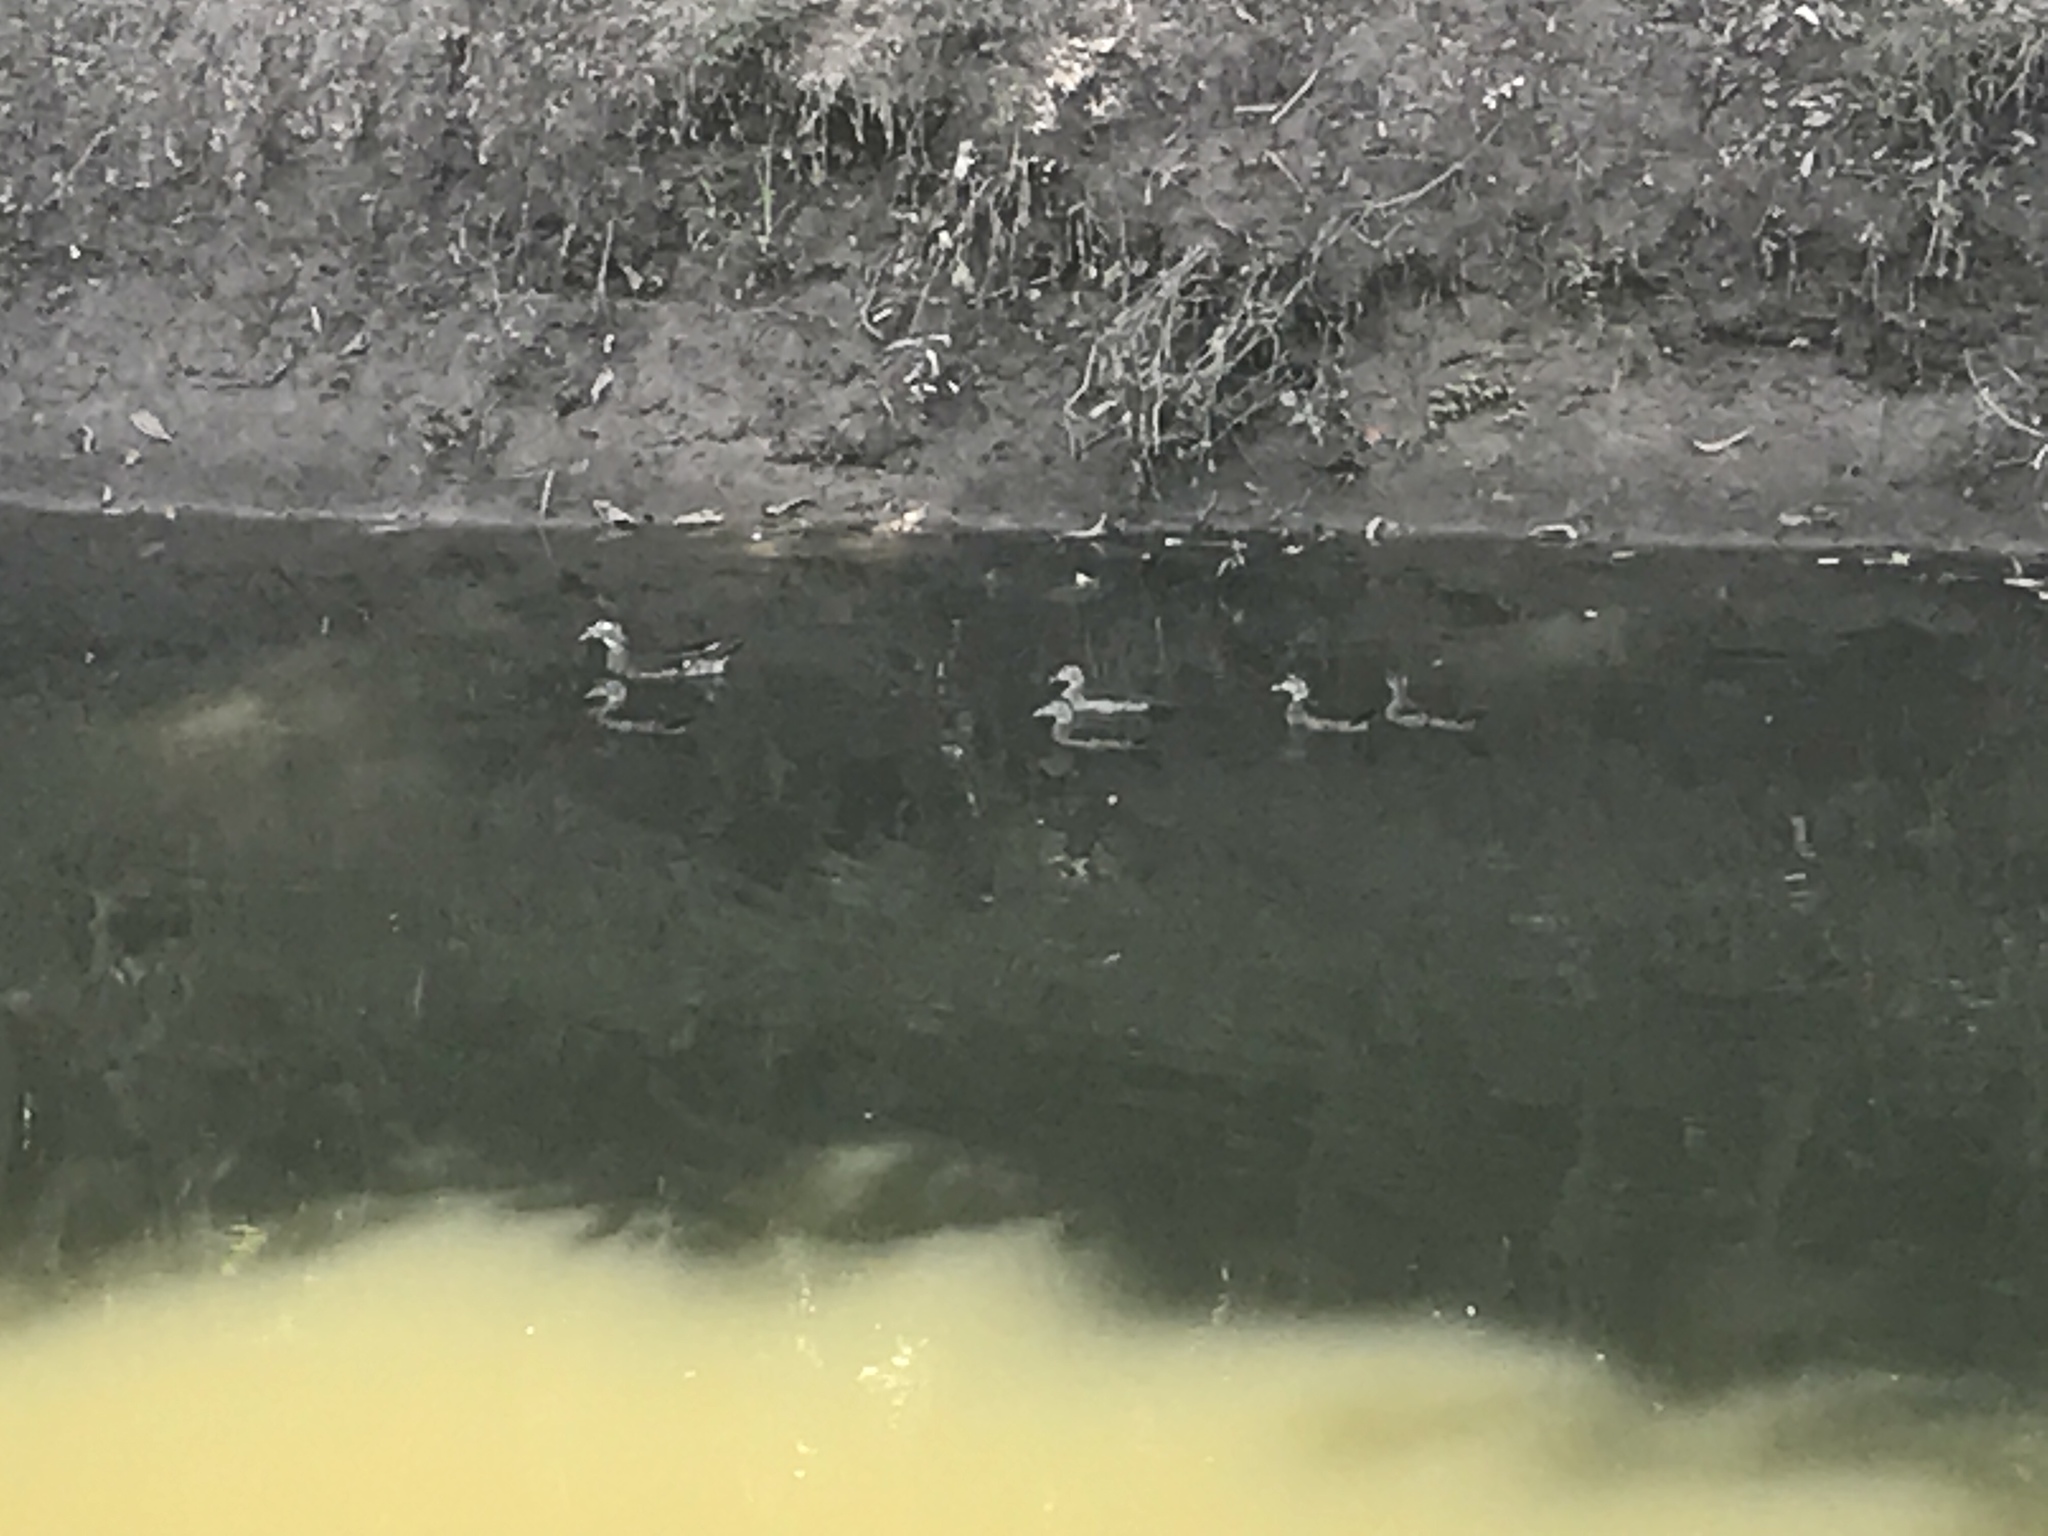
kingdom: Animalia
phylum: Chordata
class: Aves
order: Anseriformes
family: Anatidae
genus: Aix
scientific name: Aix sponsa
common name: Wood duck
